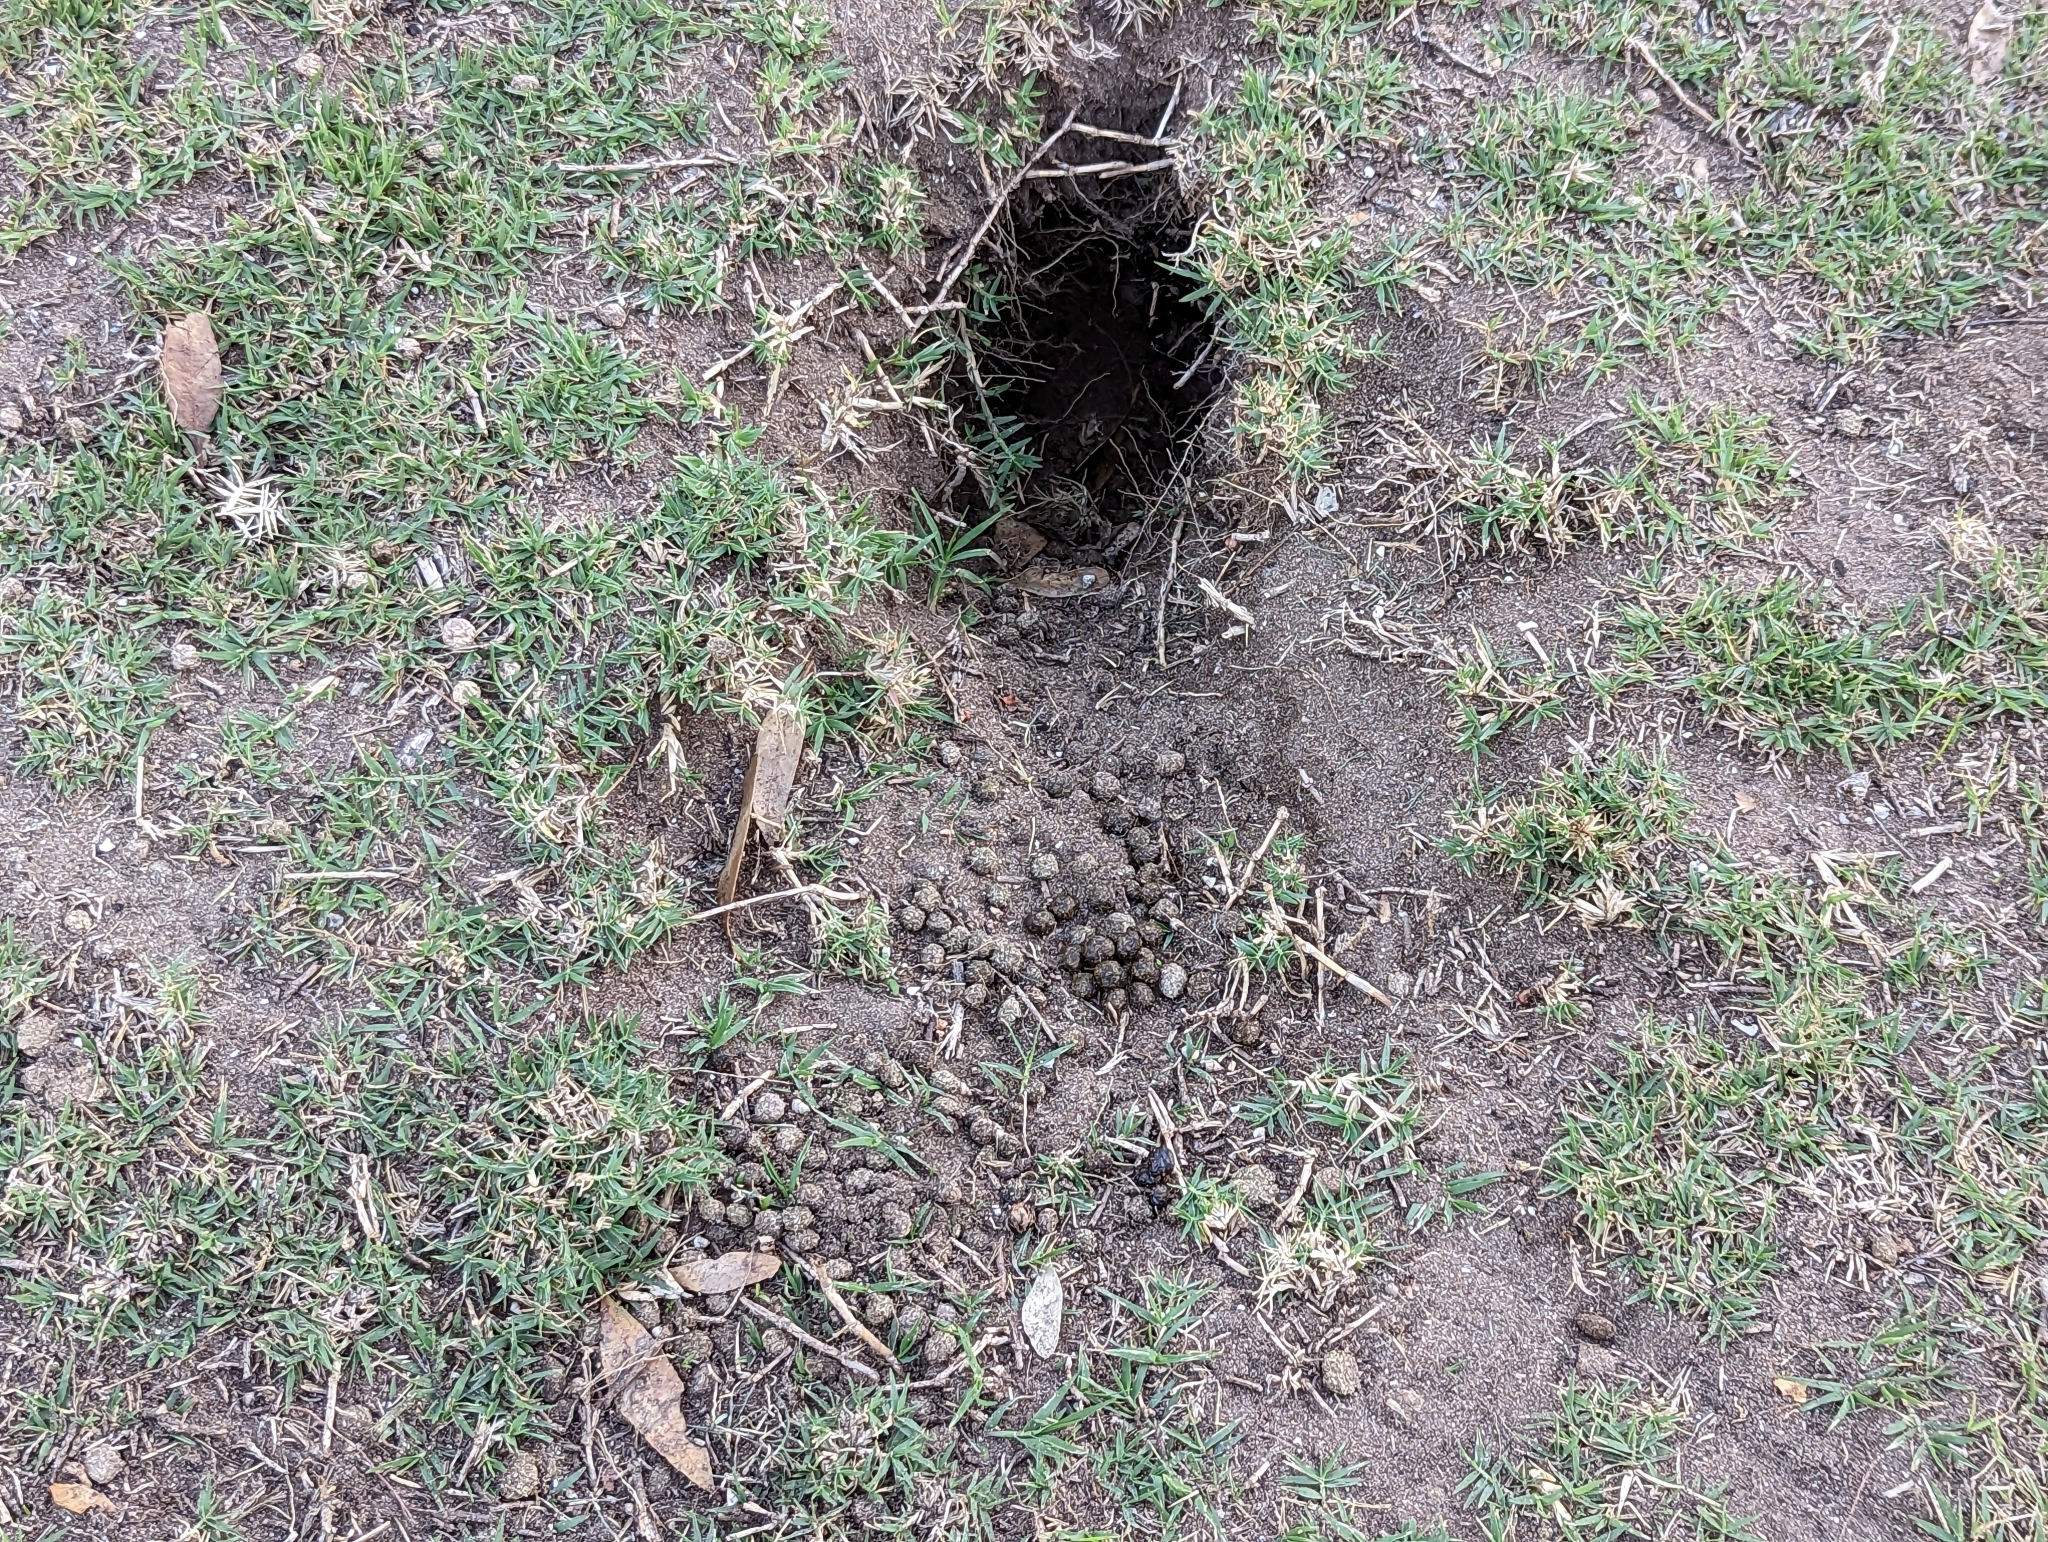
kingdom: Animalia
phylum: Chordata
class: Mammalia
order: Lagomorpha
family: Leporidae
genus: Oryctolagus
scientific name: Oryctolagus cuniculus
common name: European rabbit
